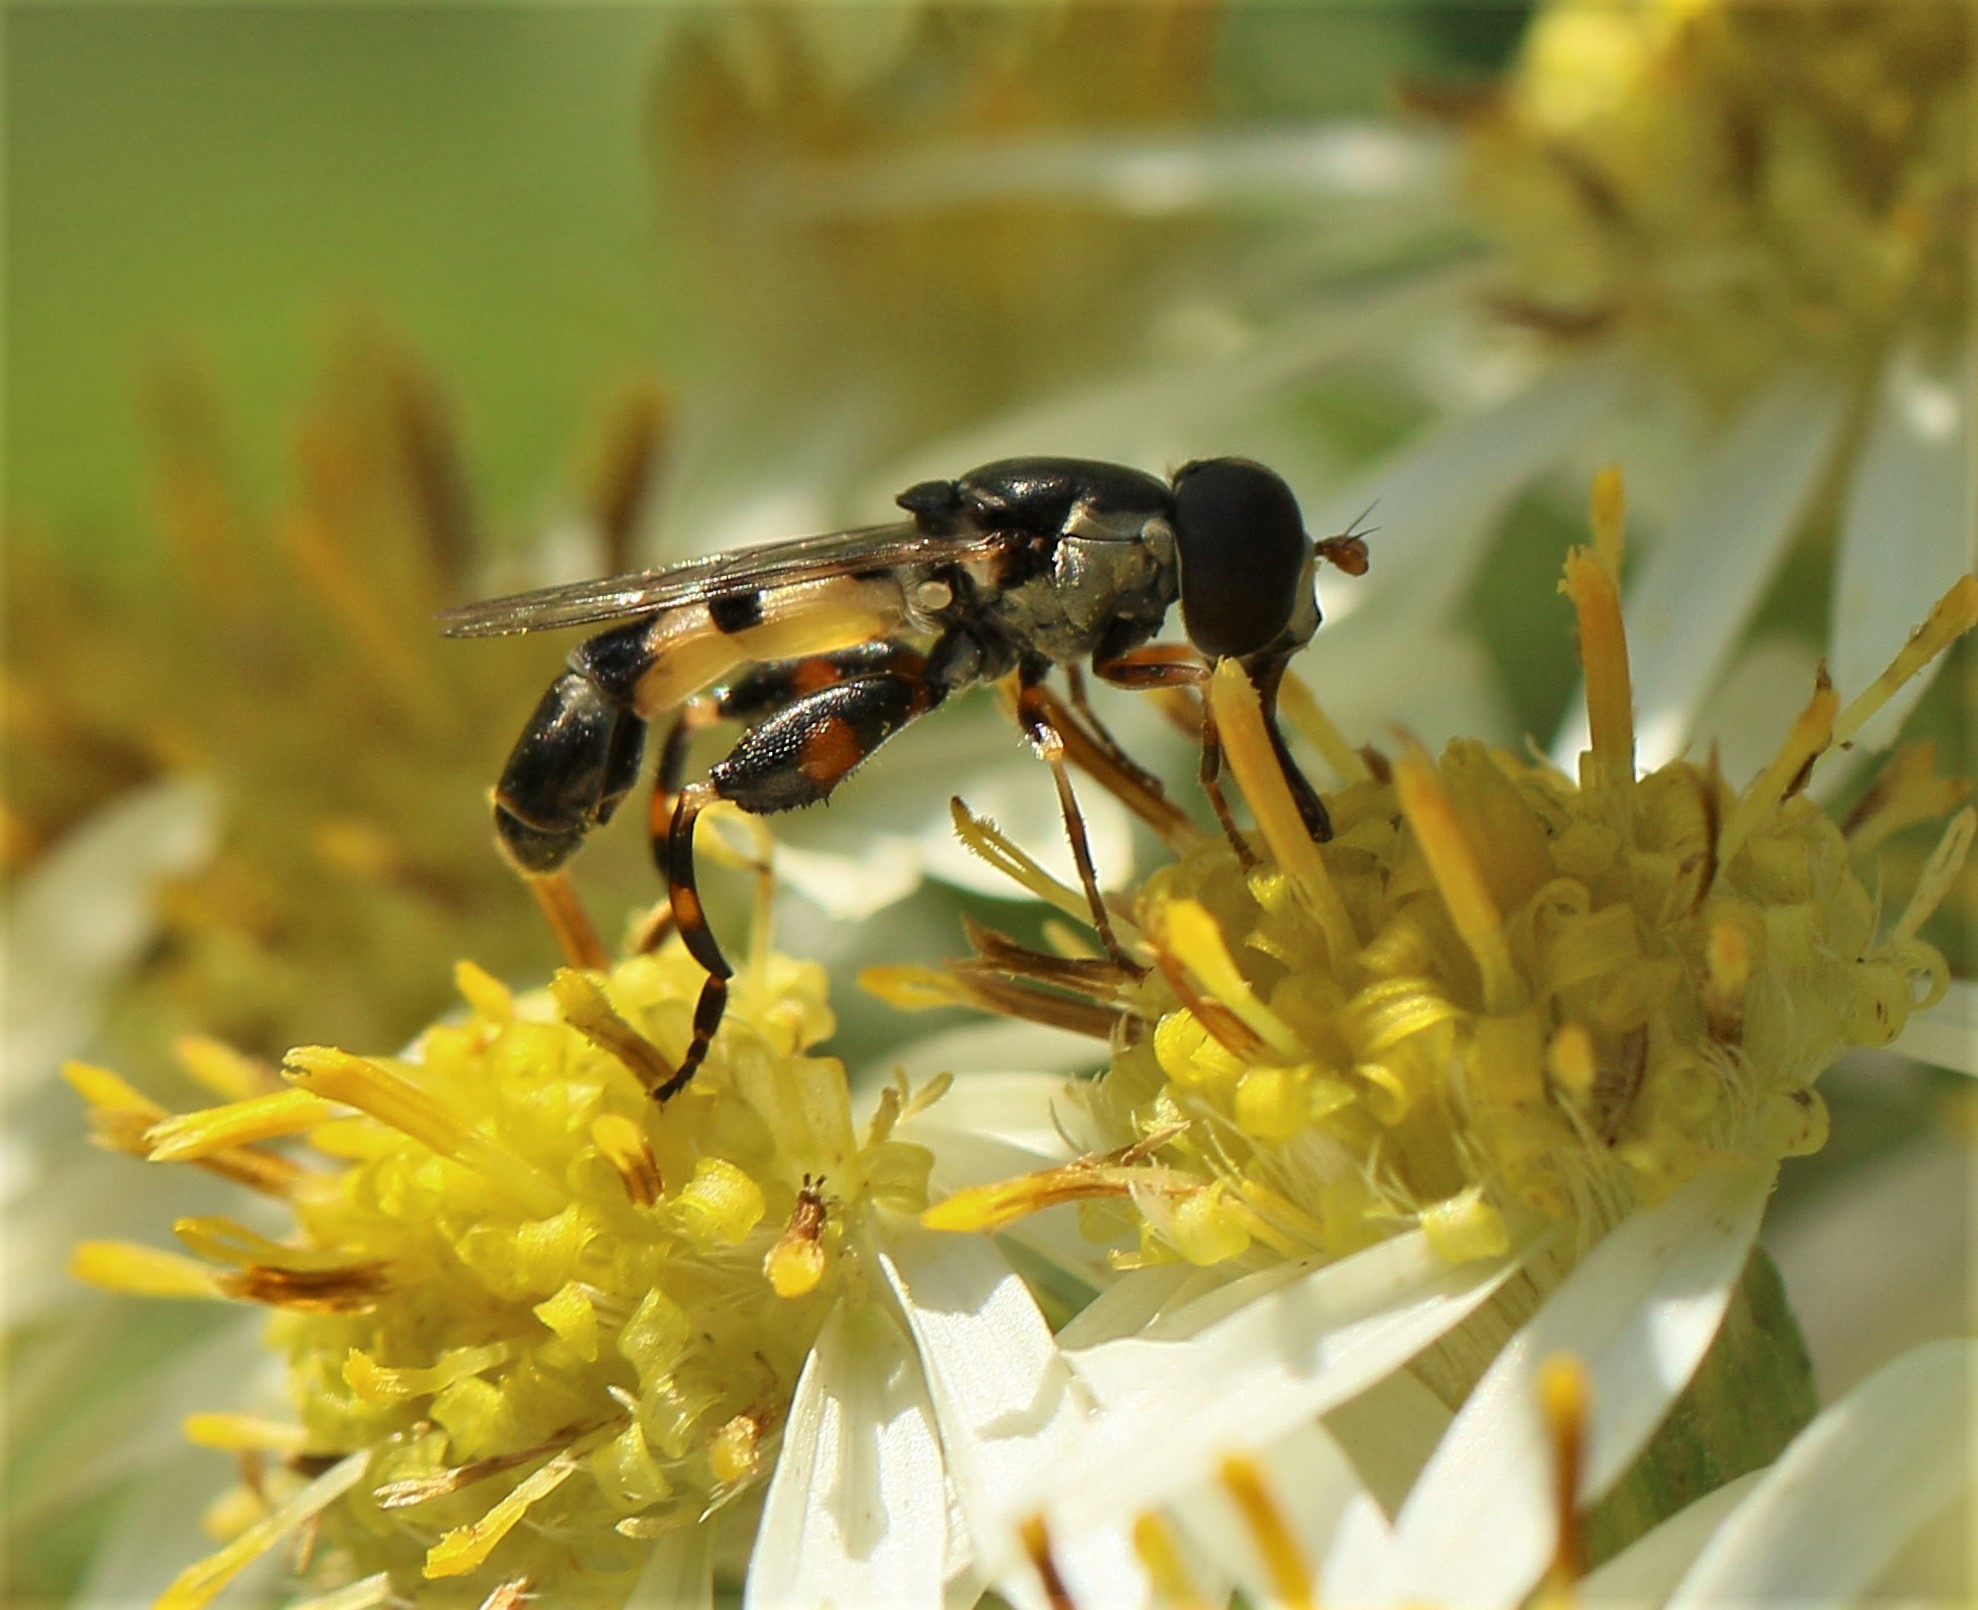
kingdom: Animalia
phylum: Arthropoda
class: Insecta
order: Diptera
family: Syrphidae
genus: Syritta
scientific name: Syritta pipiens
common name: Hover fly
